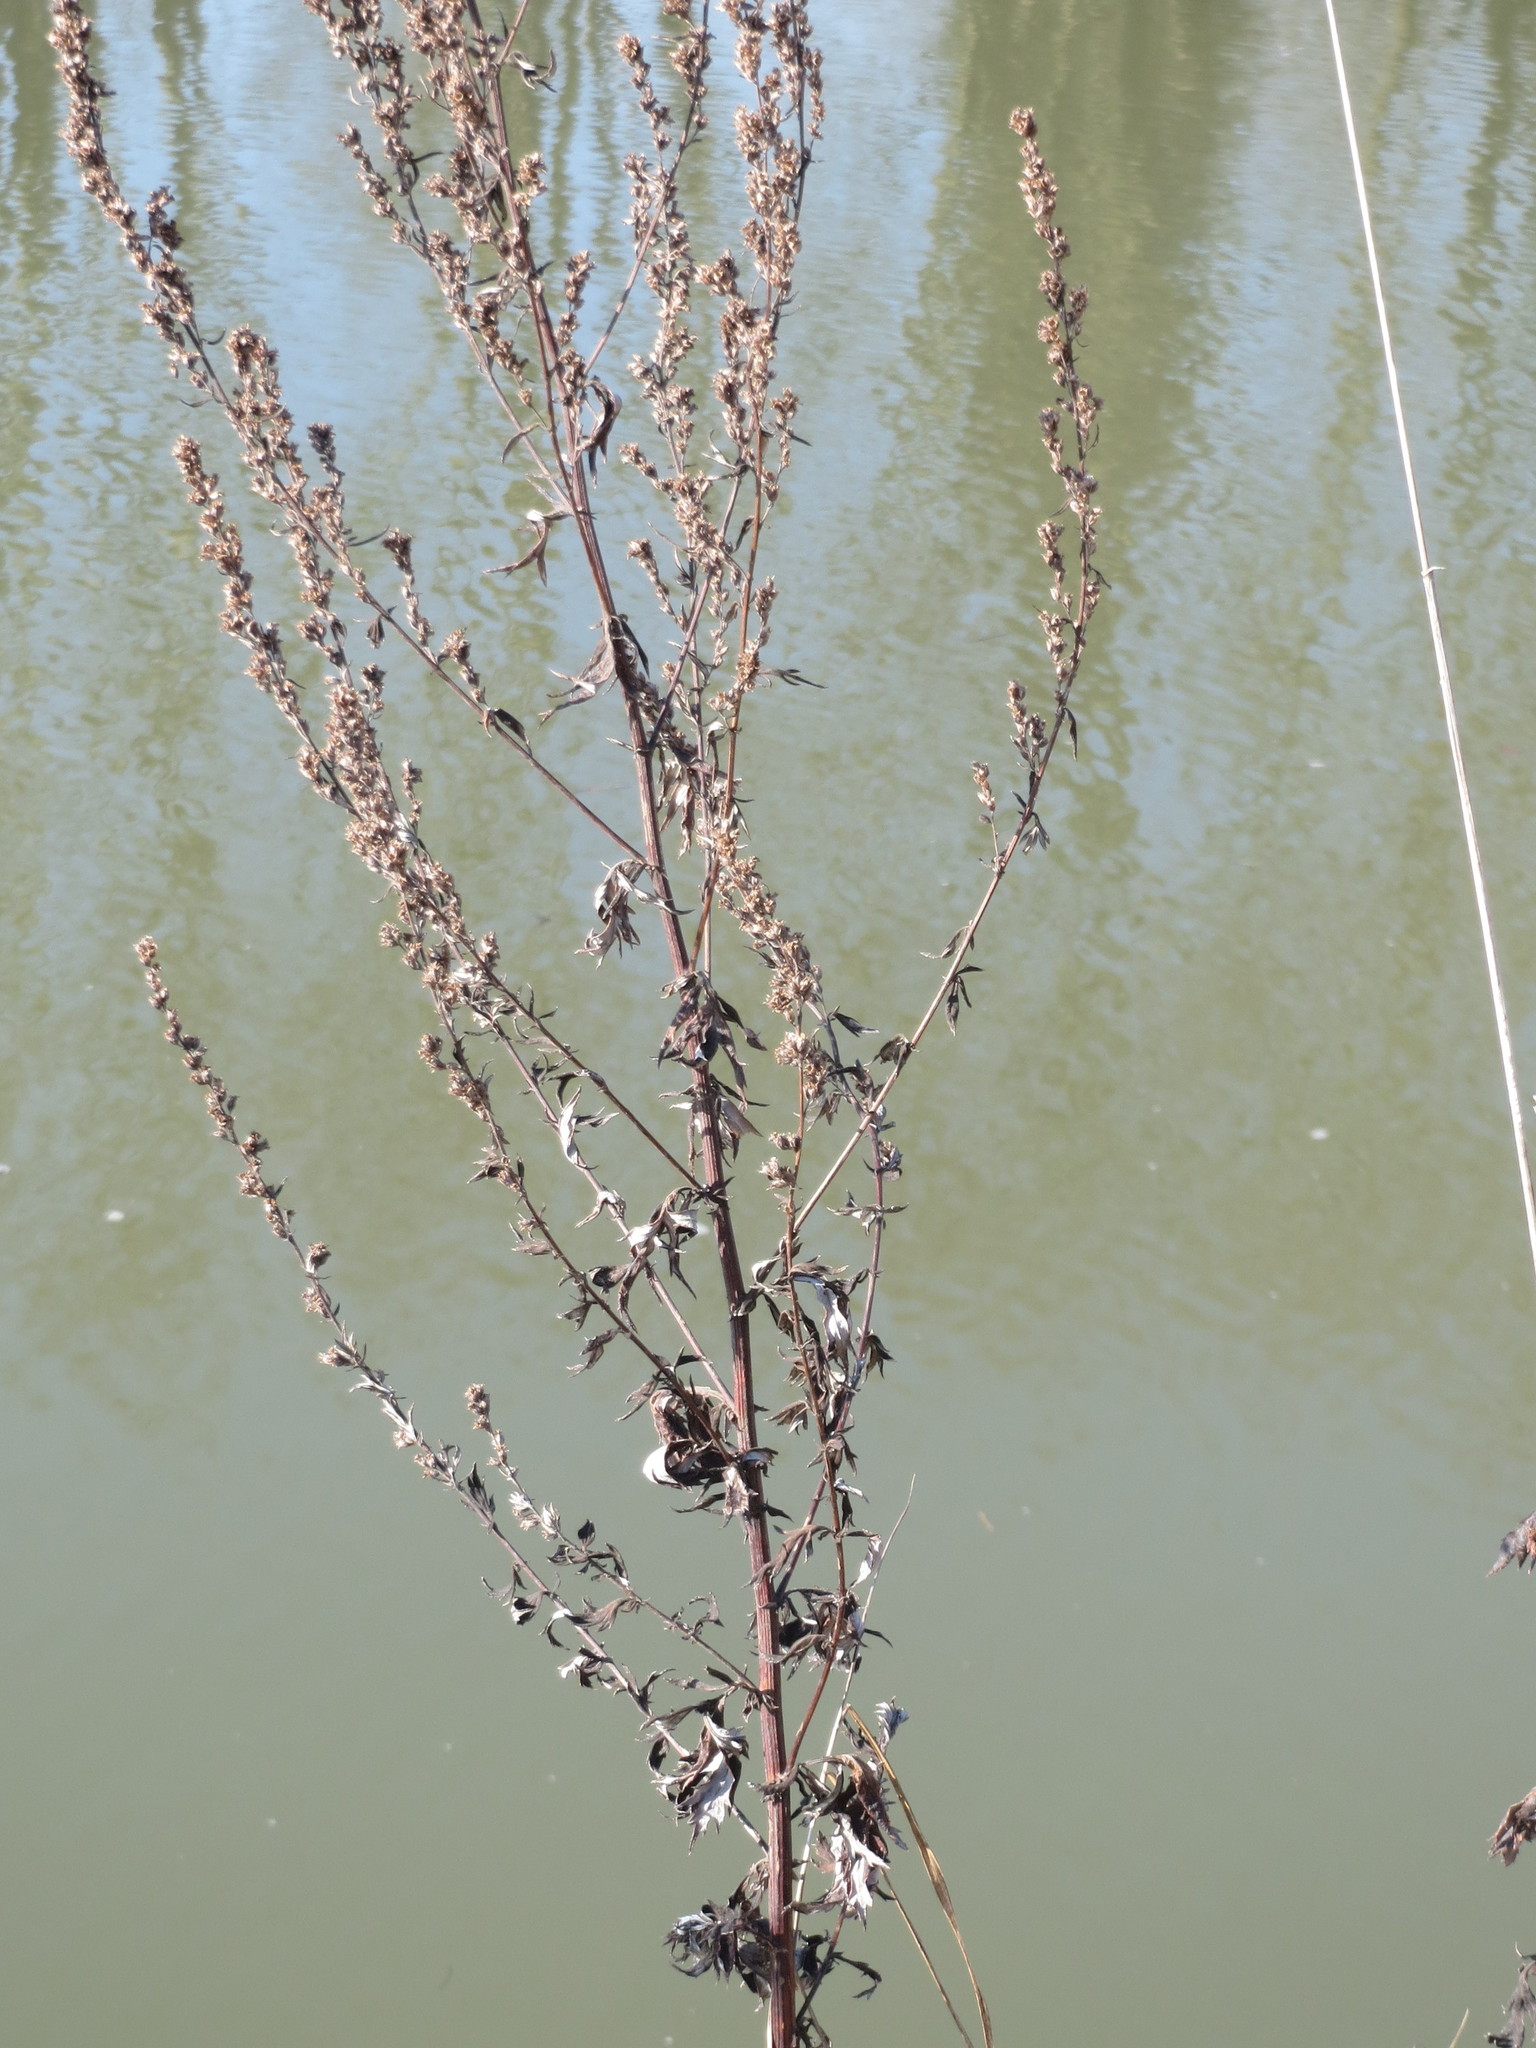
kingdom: Plantae
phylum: Tracheophyta
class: Magnoliopsida
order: Asterales
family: Asteraceae
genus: Artemisia
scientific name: Artemisia vulgaris
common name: Mugwort
